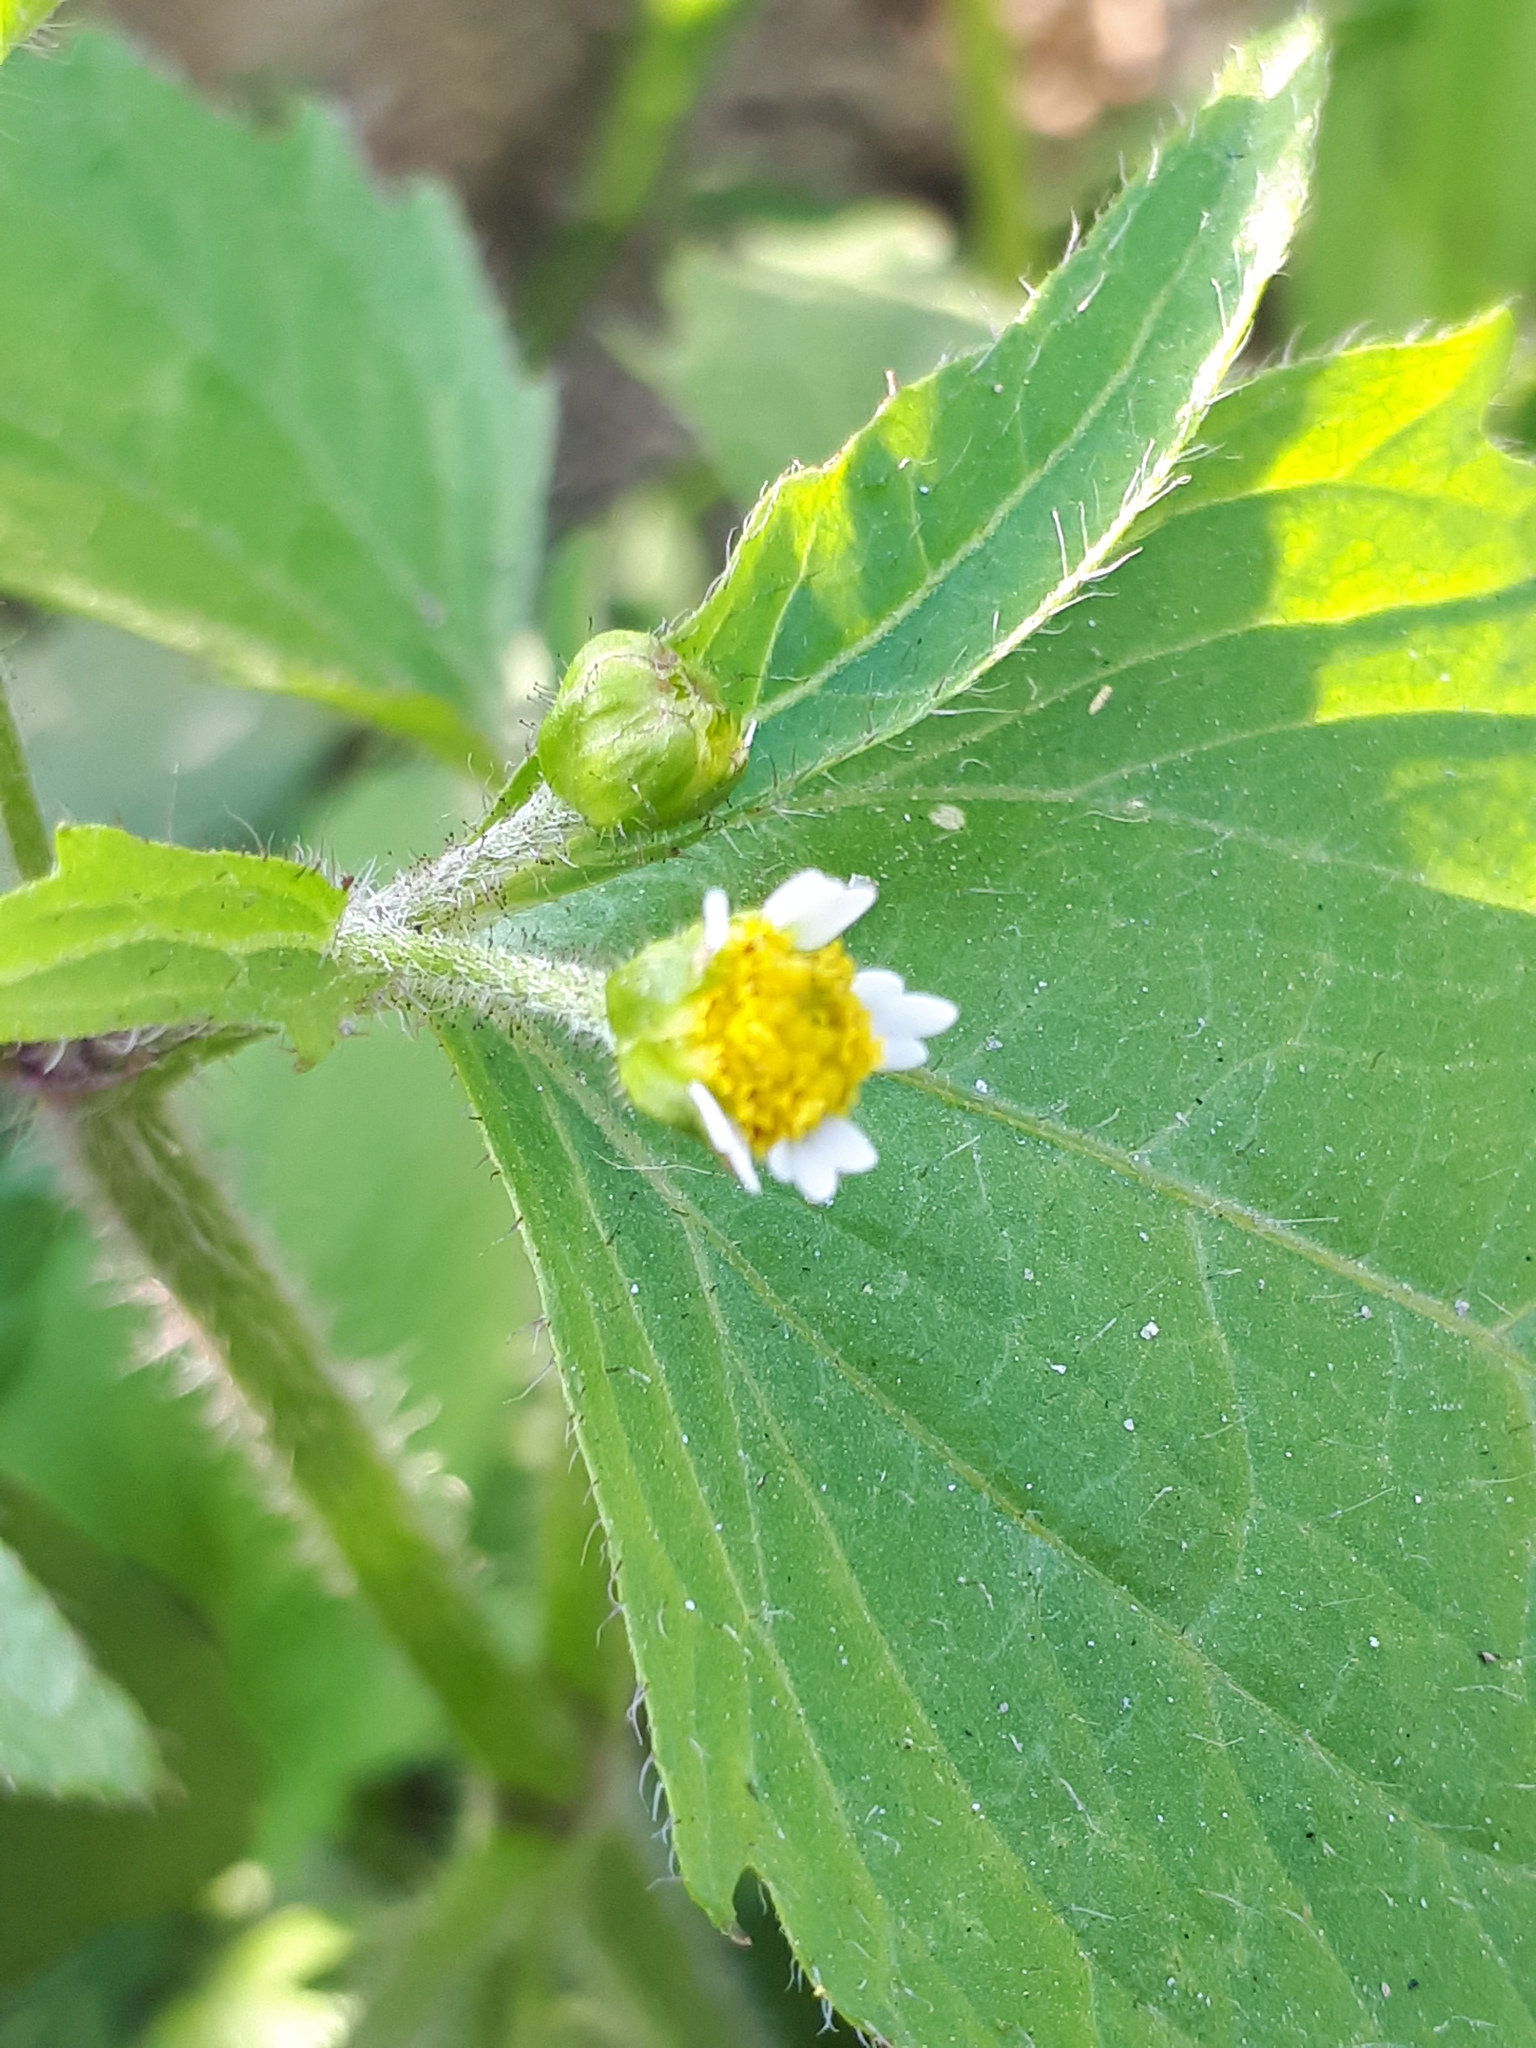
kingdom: Plantae
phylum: Tracheophyta
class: Magnoliopsida
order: Asterales
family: Asteraceae
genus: Galinsoga
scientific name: Galinsoga quadriradiata
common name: Shaggy soldier
